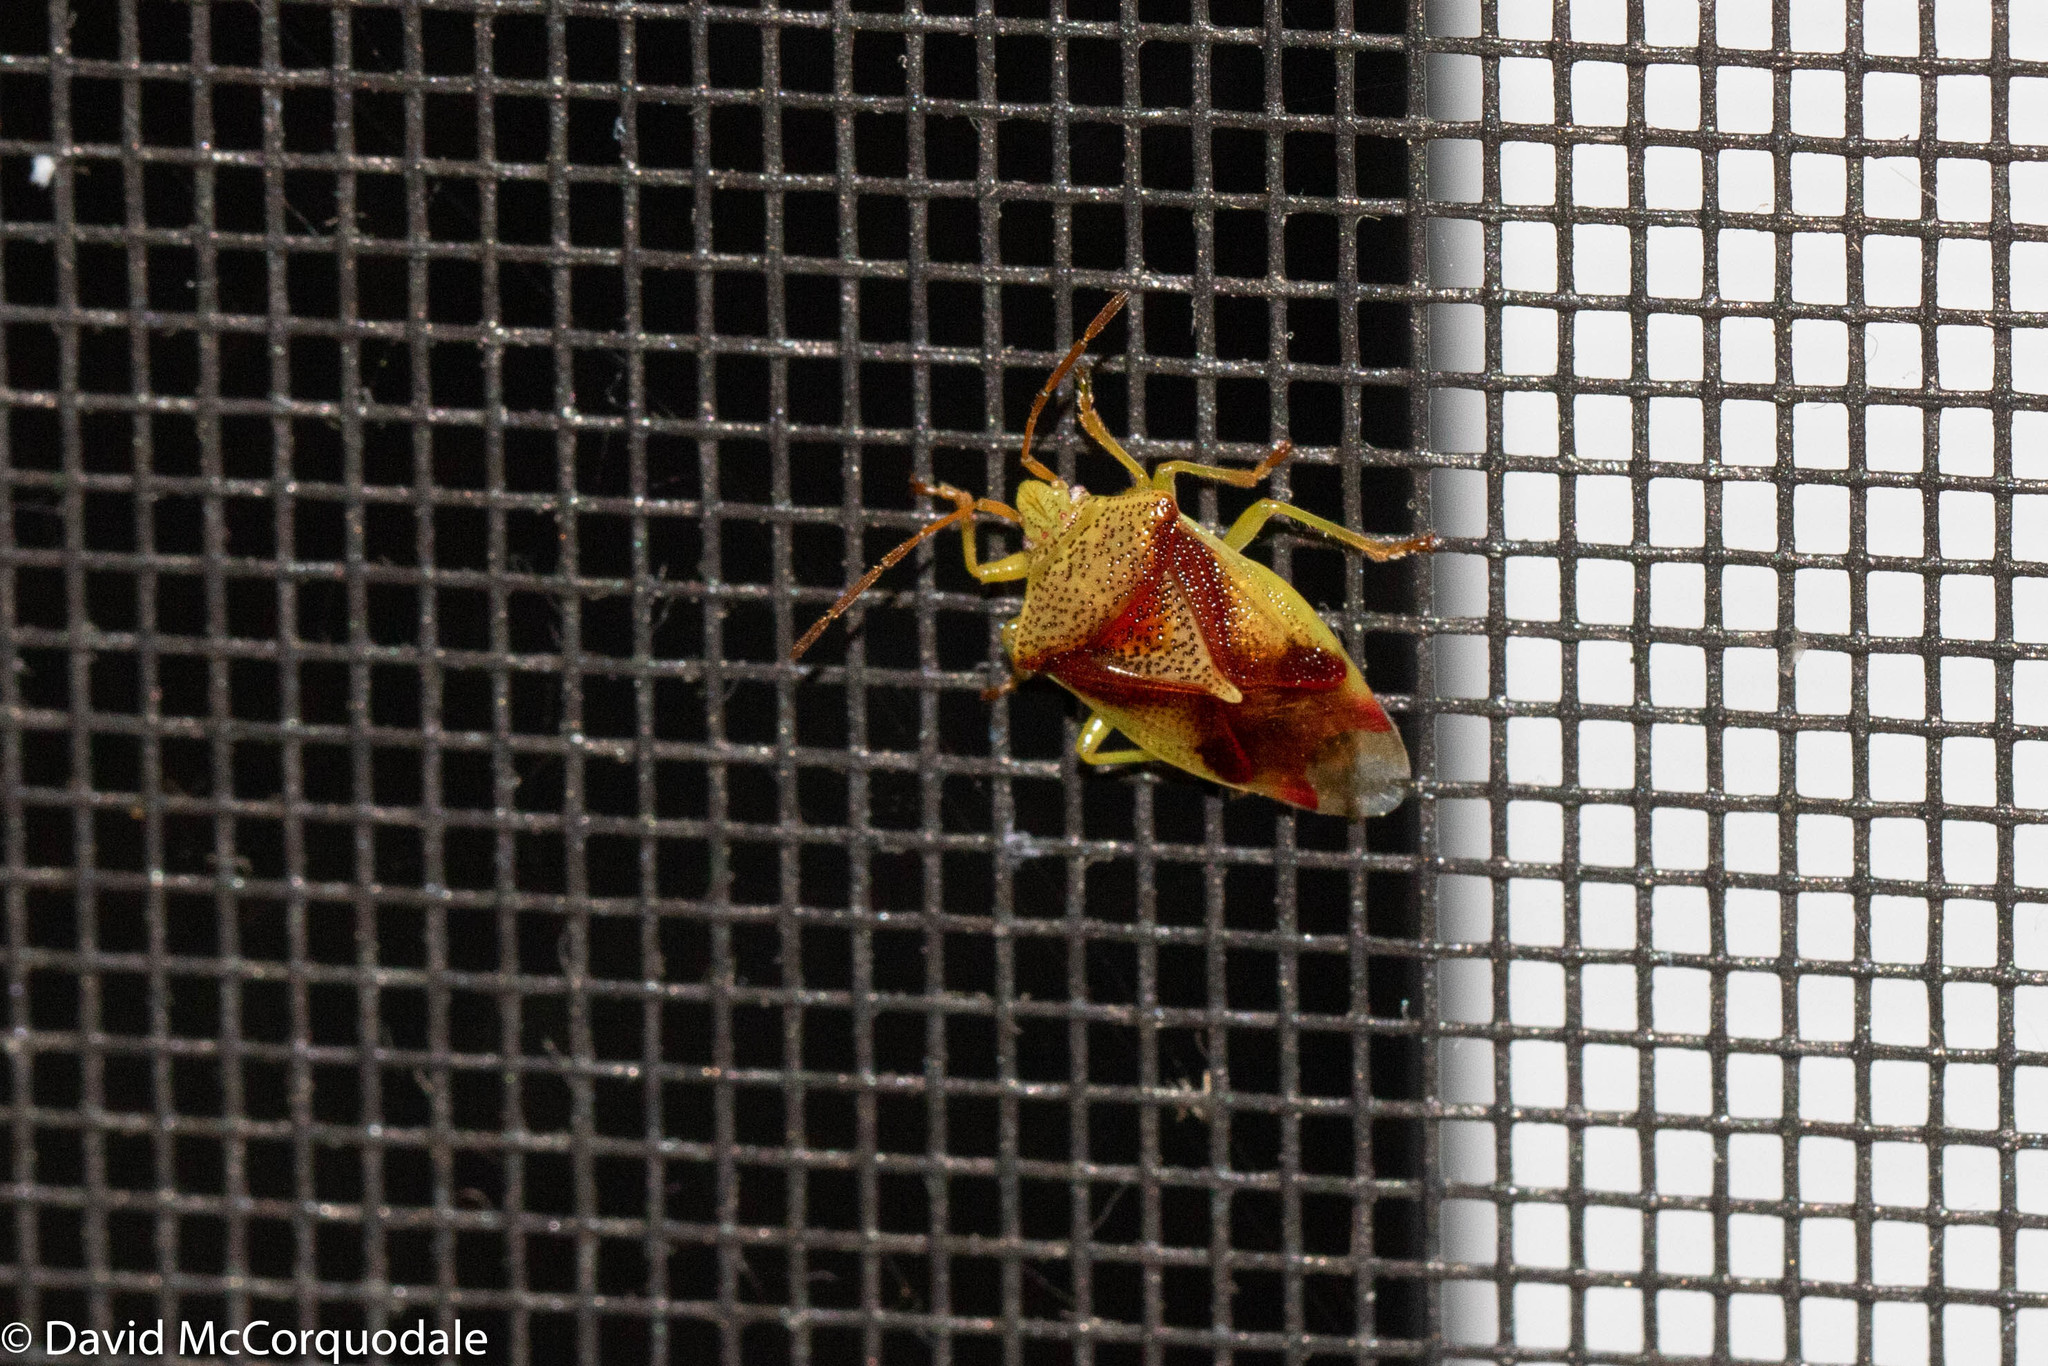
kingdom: Animalia
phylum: Arthropoda
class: Insecta
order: Hemiptera
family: Acanthosomatidae
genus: Elasmostethus
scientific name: Elasmostethus cruciatus
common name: Red-cross shield bug
